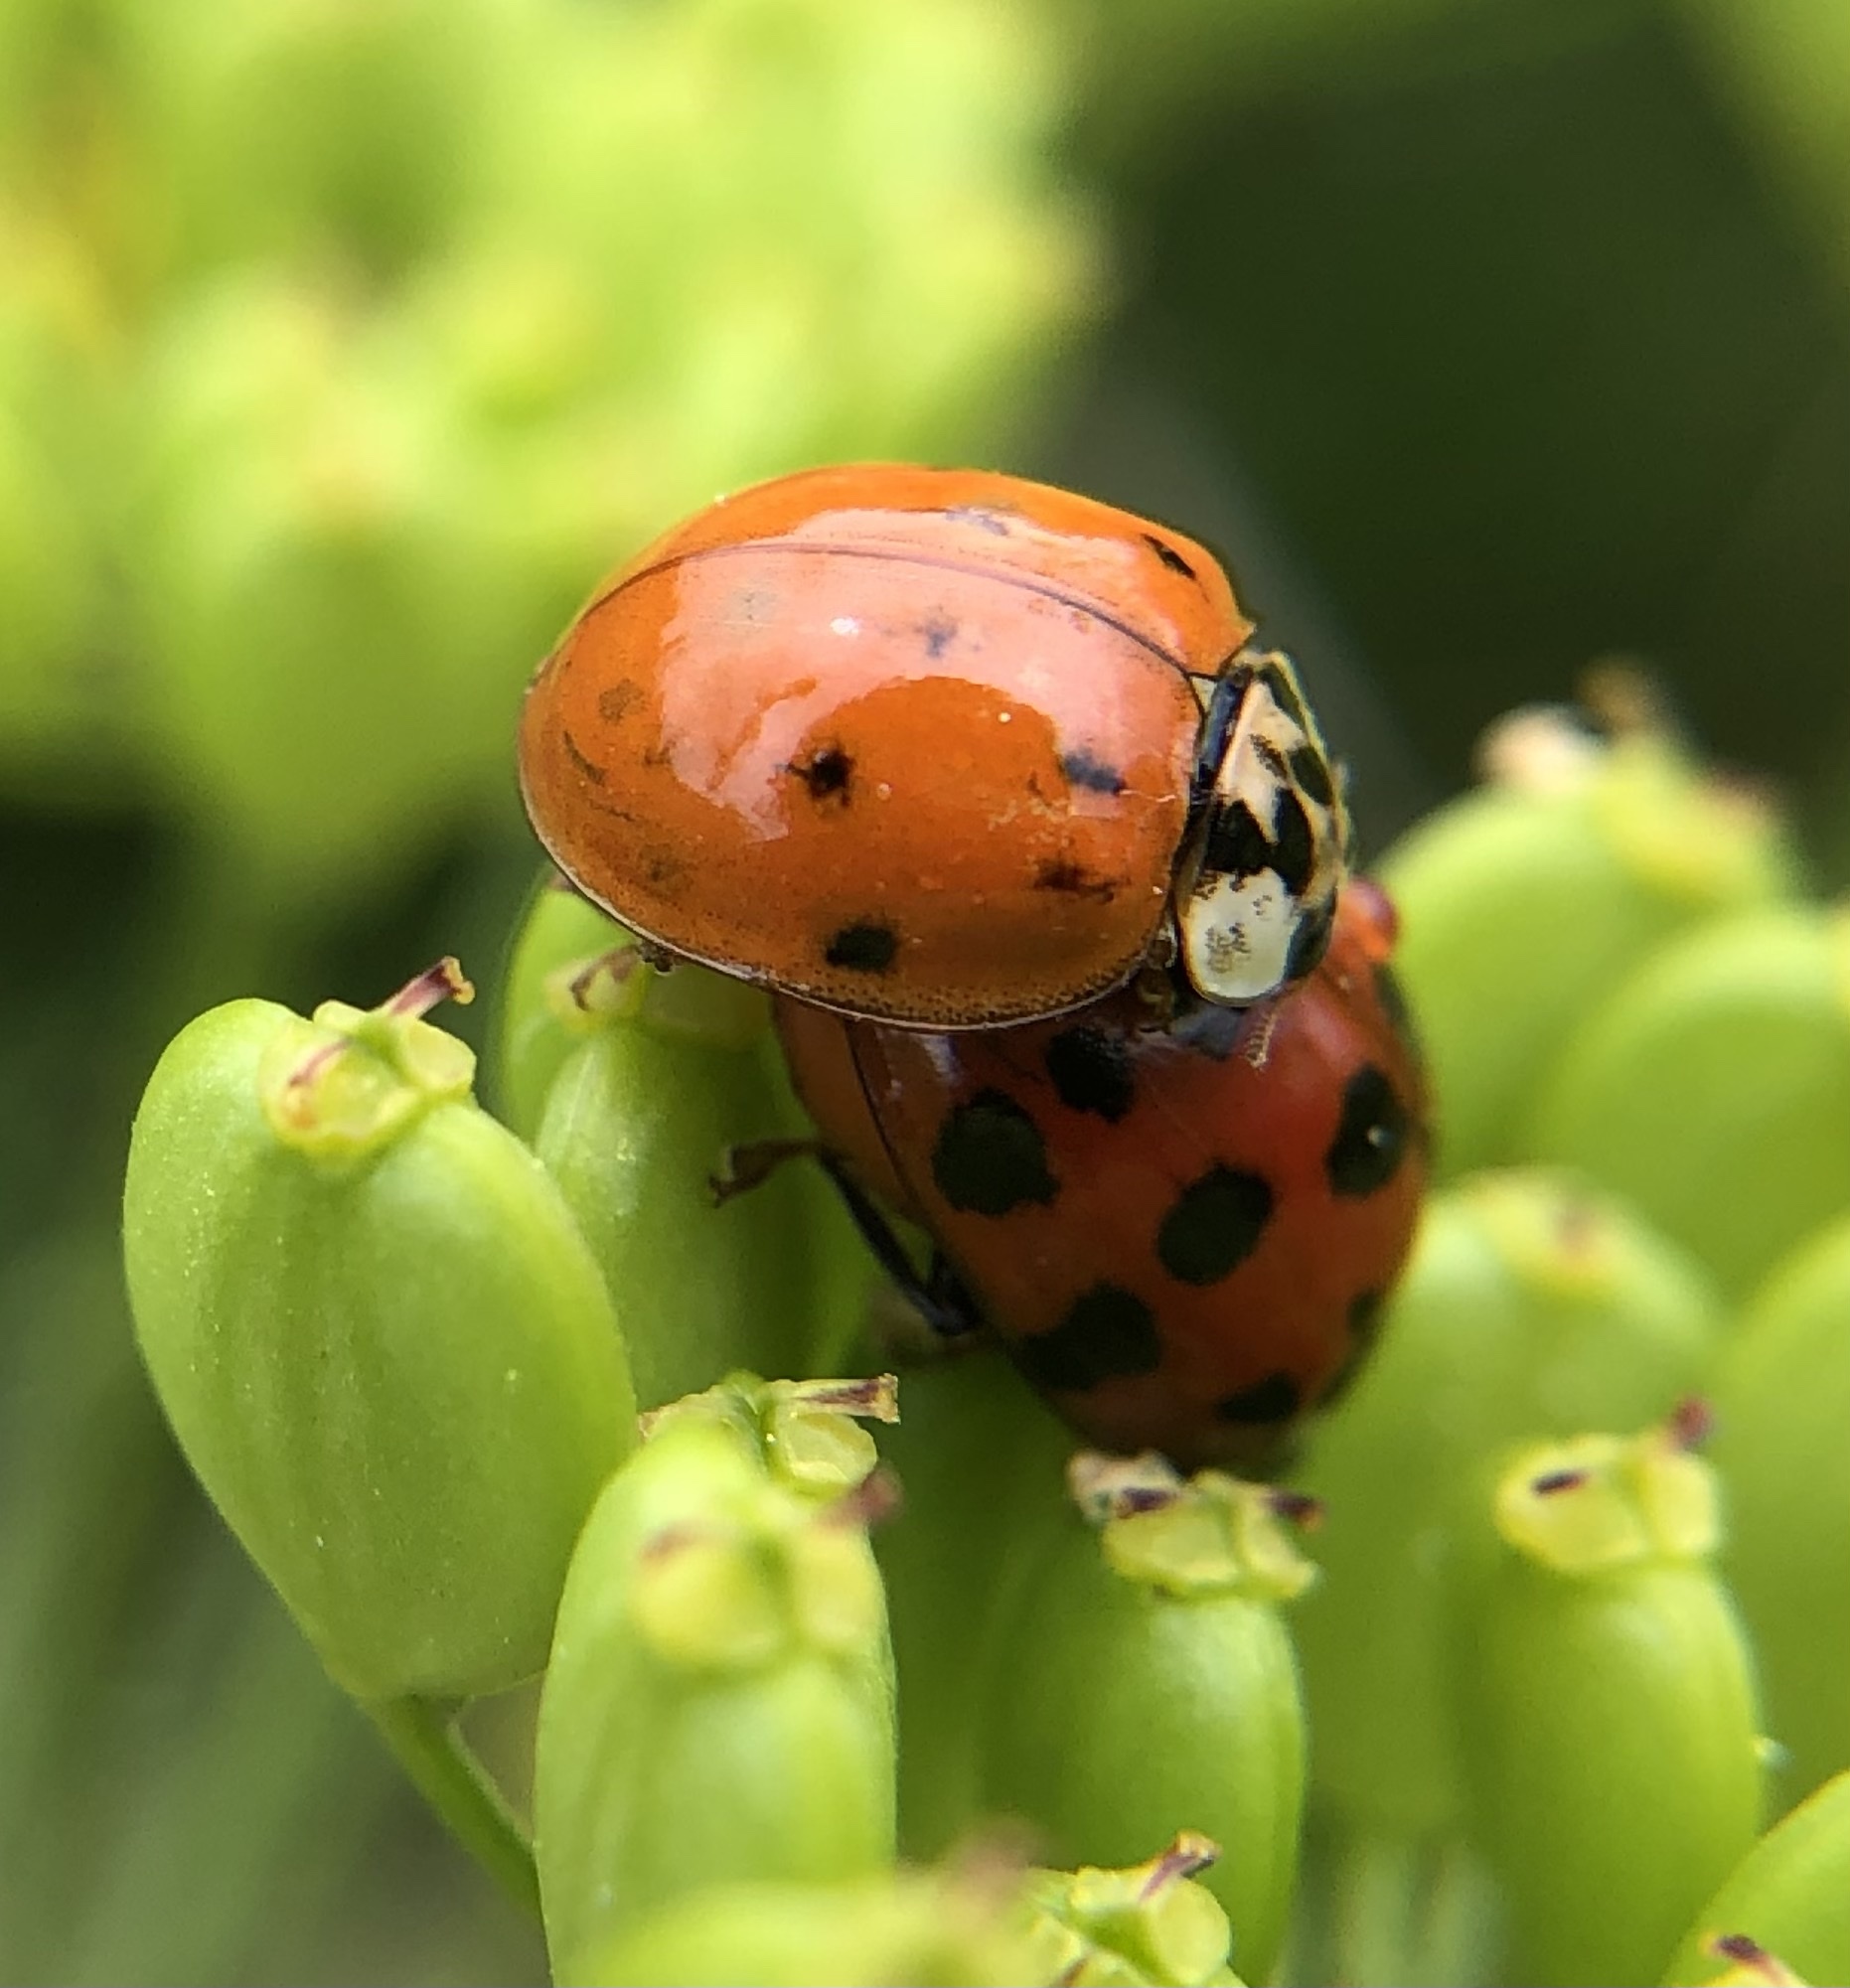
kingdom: Animalia
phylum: Arthropoda
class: Insecta
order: Coleoptera
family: Coccinellidae
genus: Harmonia
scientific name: Harmonia axyridis
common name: Harlequin ladybird
